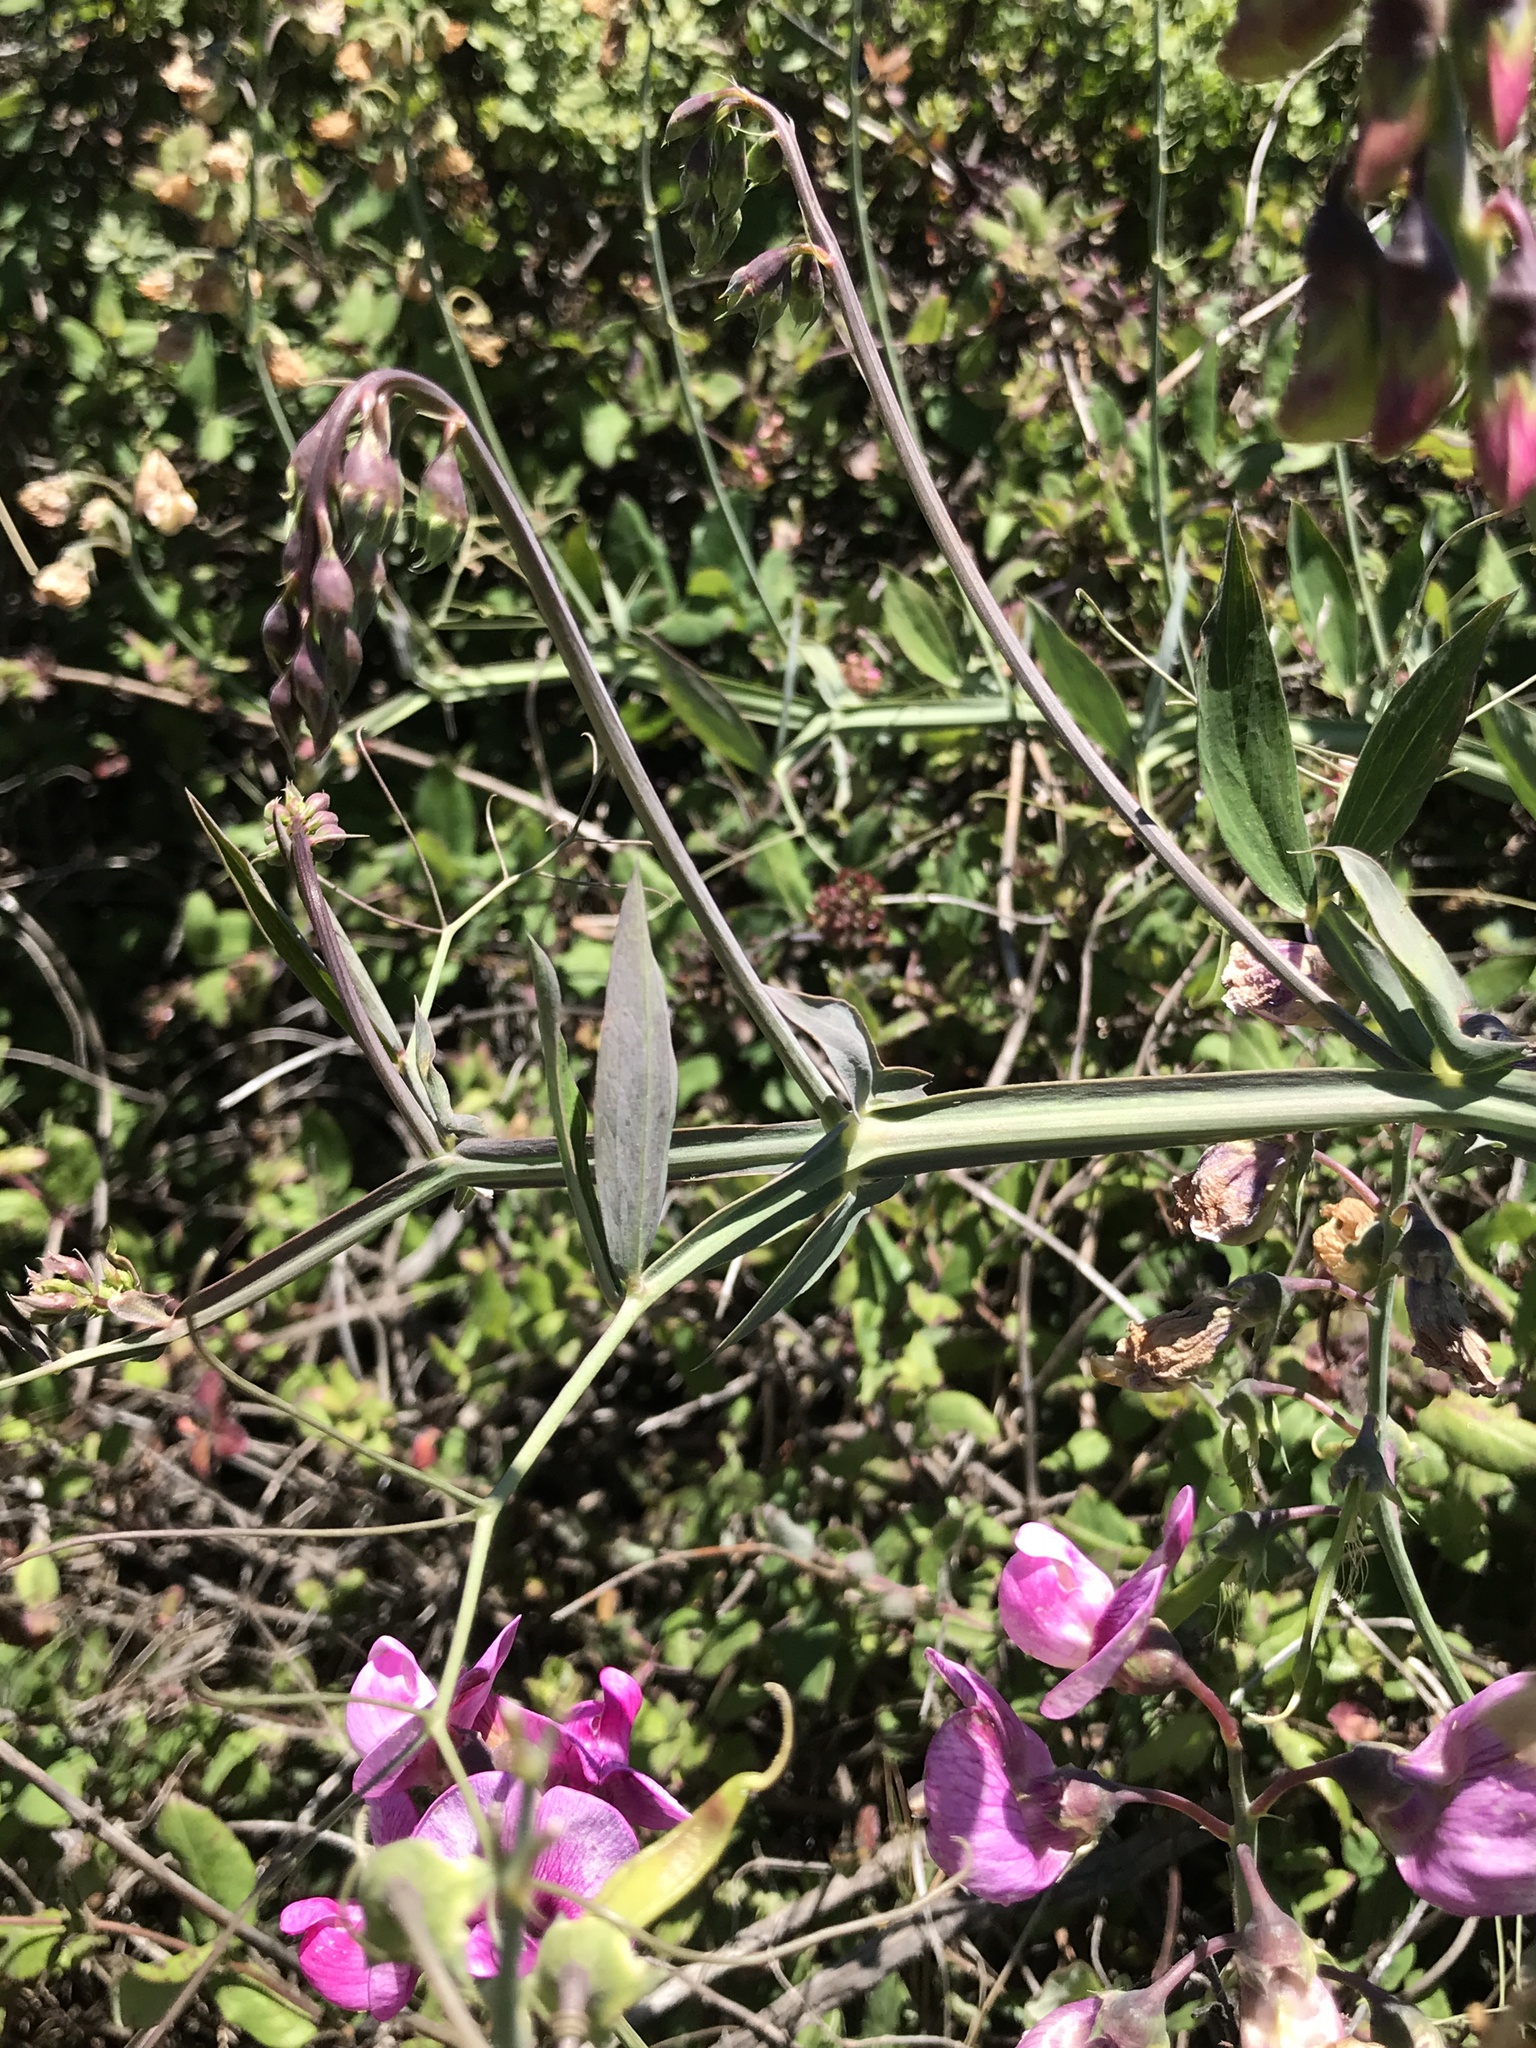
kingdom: Plantae
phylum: Tracheophyta
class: Magnoliopsida
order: Fabales
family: Fabaceae
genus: Lathyrus
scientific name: Lathyrus latifolius
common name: Perennial pea
